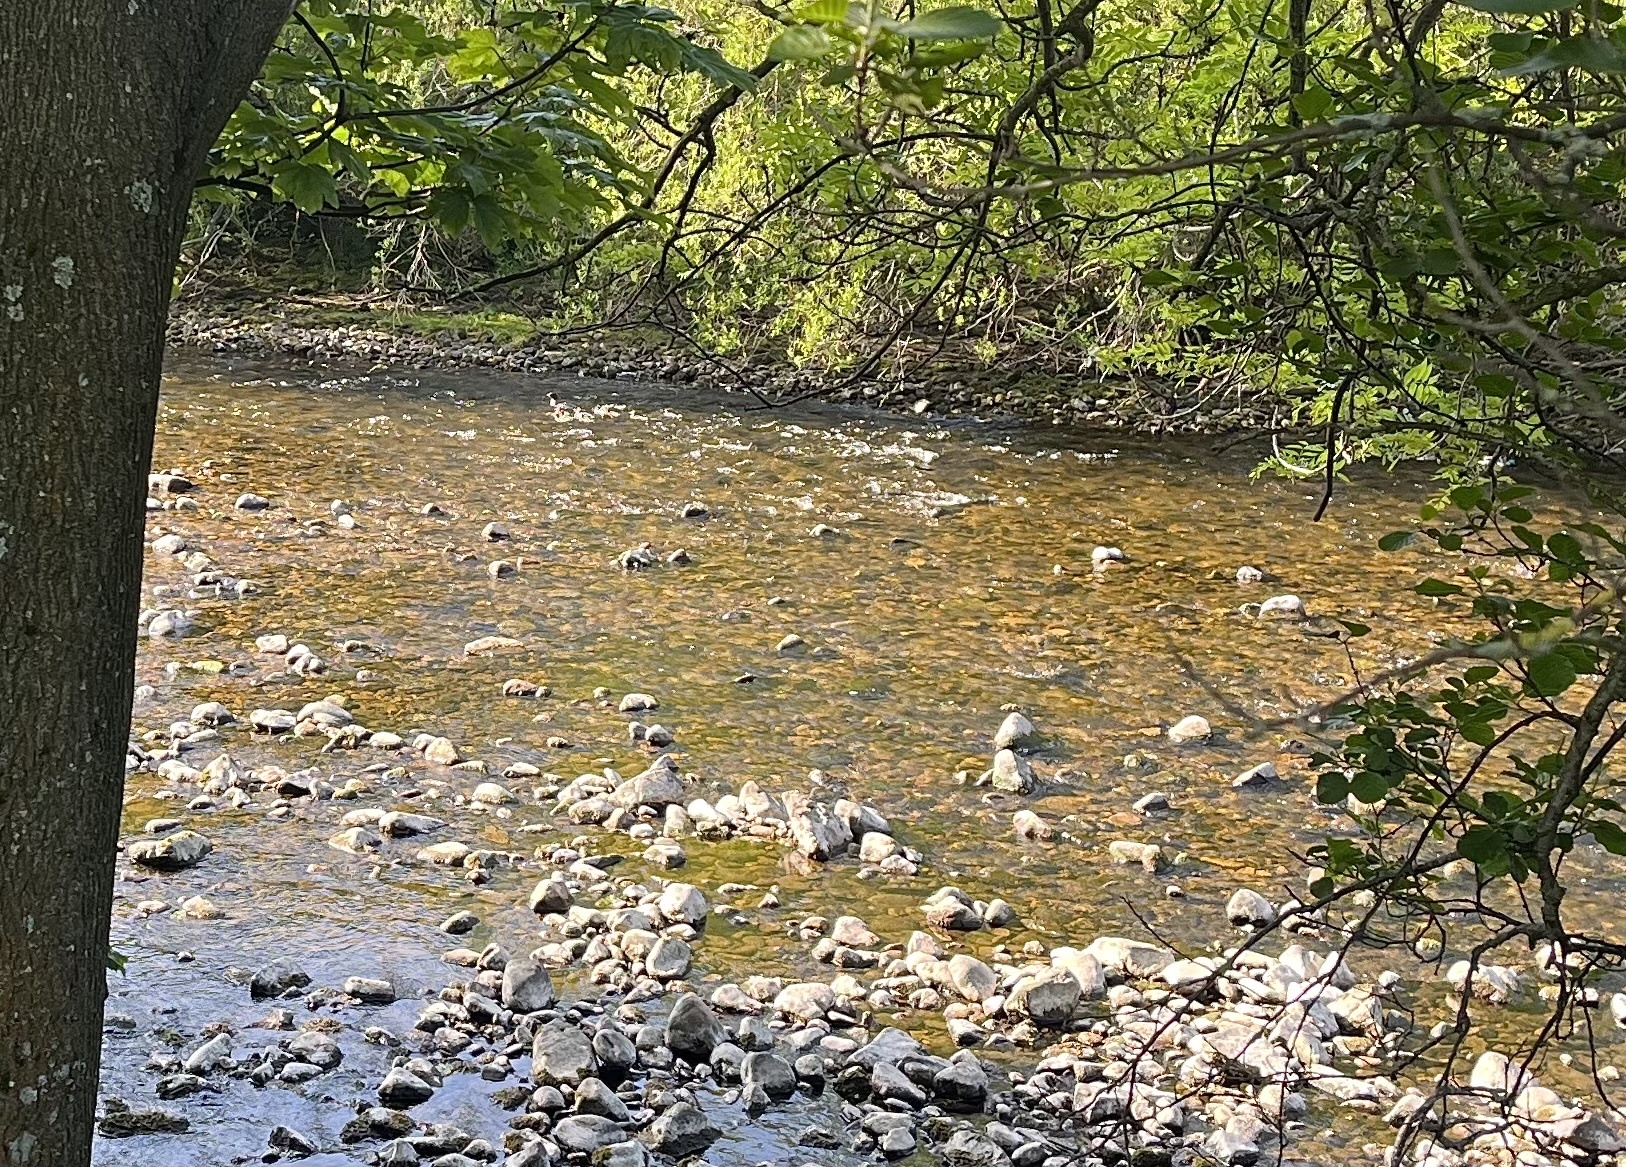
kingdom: Animalia
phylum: Chordata
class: Aves
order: Anseriformes
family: Anatidae
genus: Mergus
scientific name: Mergus merganser
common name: Common merganser
